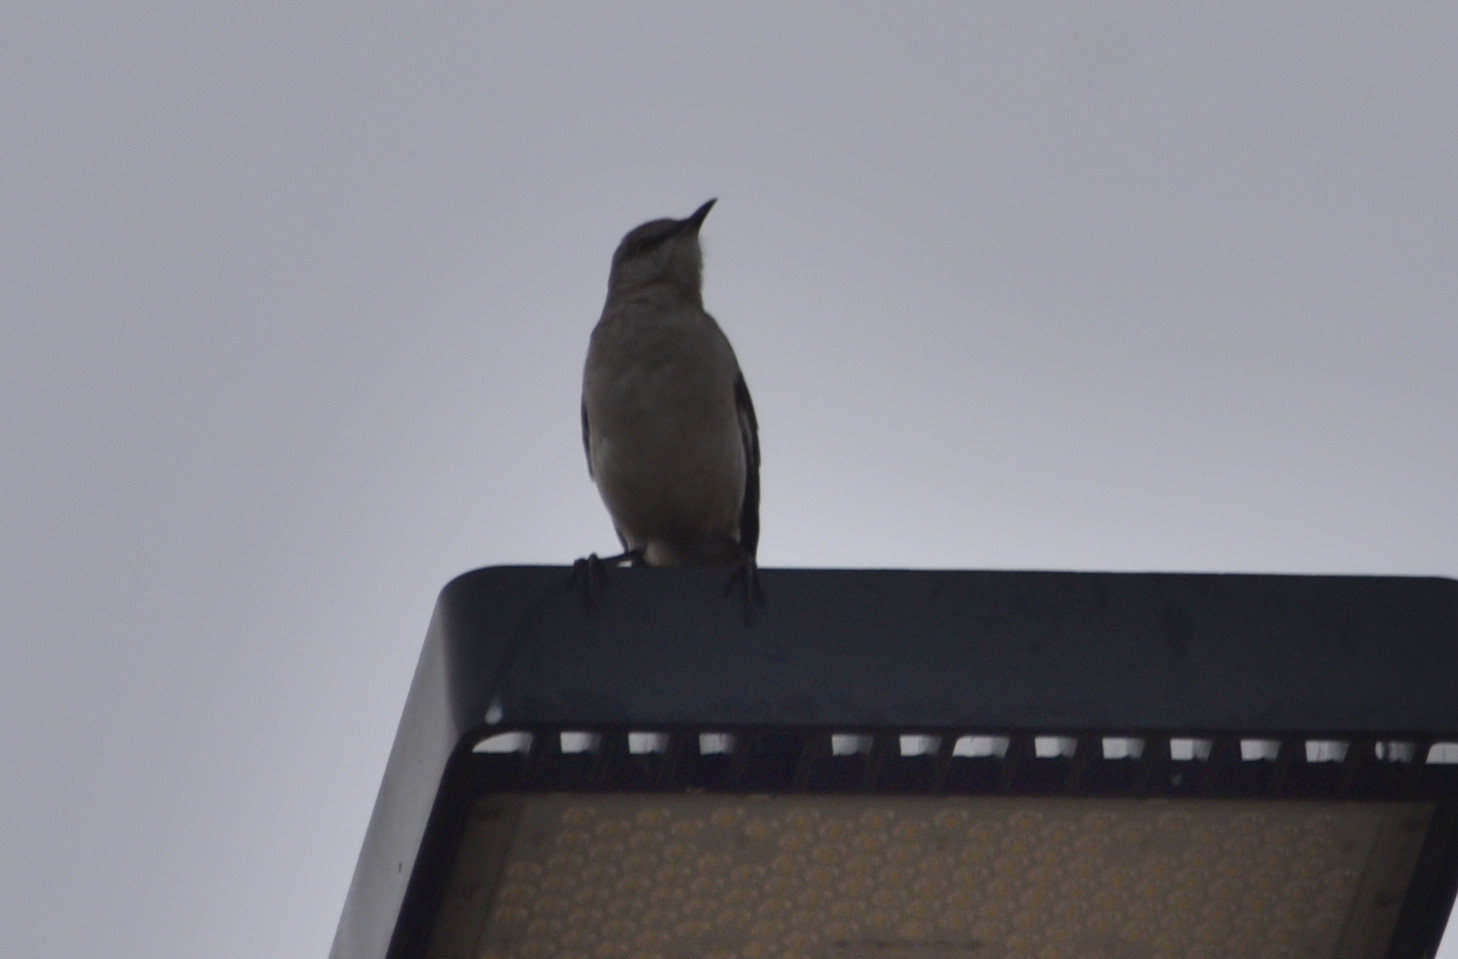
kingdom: Animalia
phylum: Chordata
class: Aves
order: Passeriformes
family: Mimidae
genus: Mimus
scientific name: Mimus polyglottos
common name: Northern mockingbird
